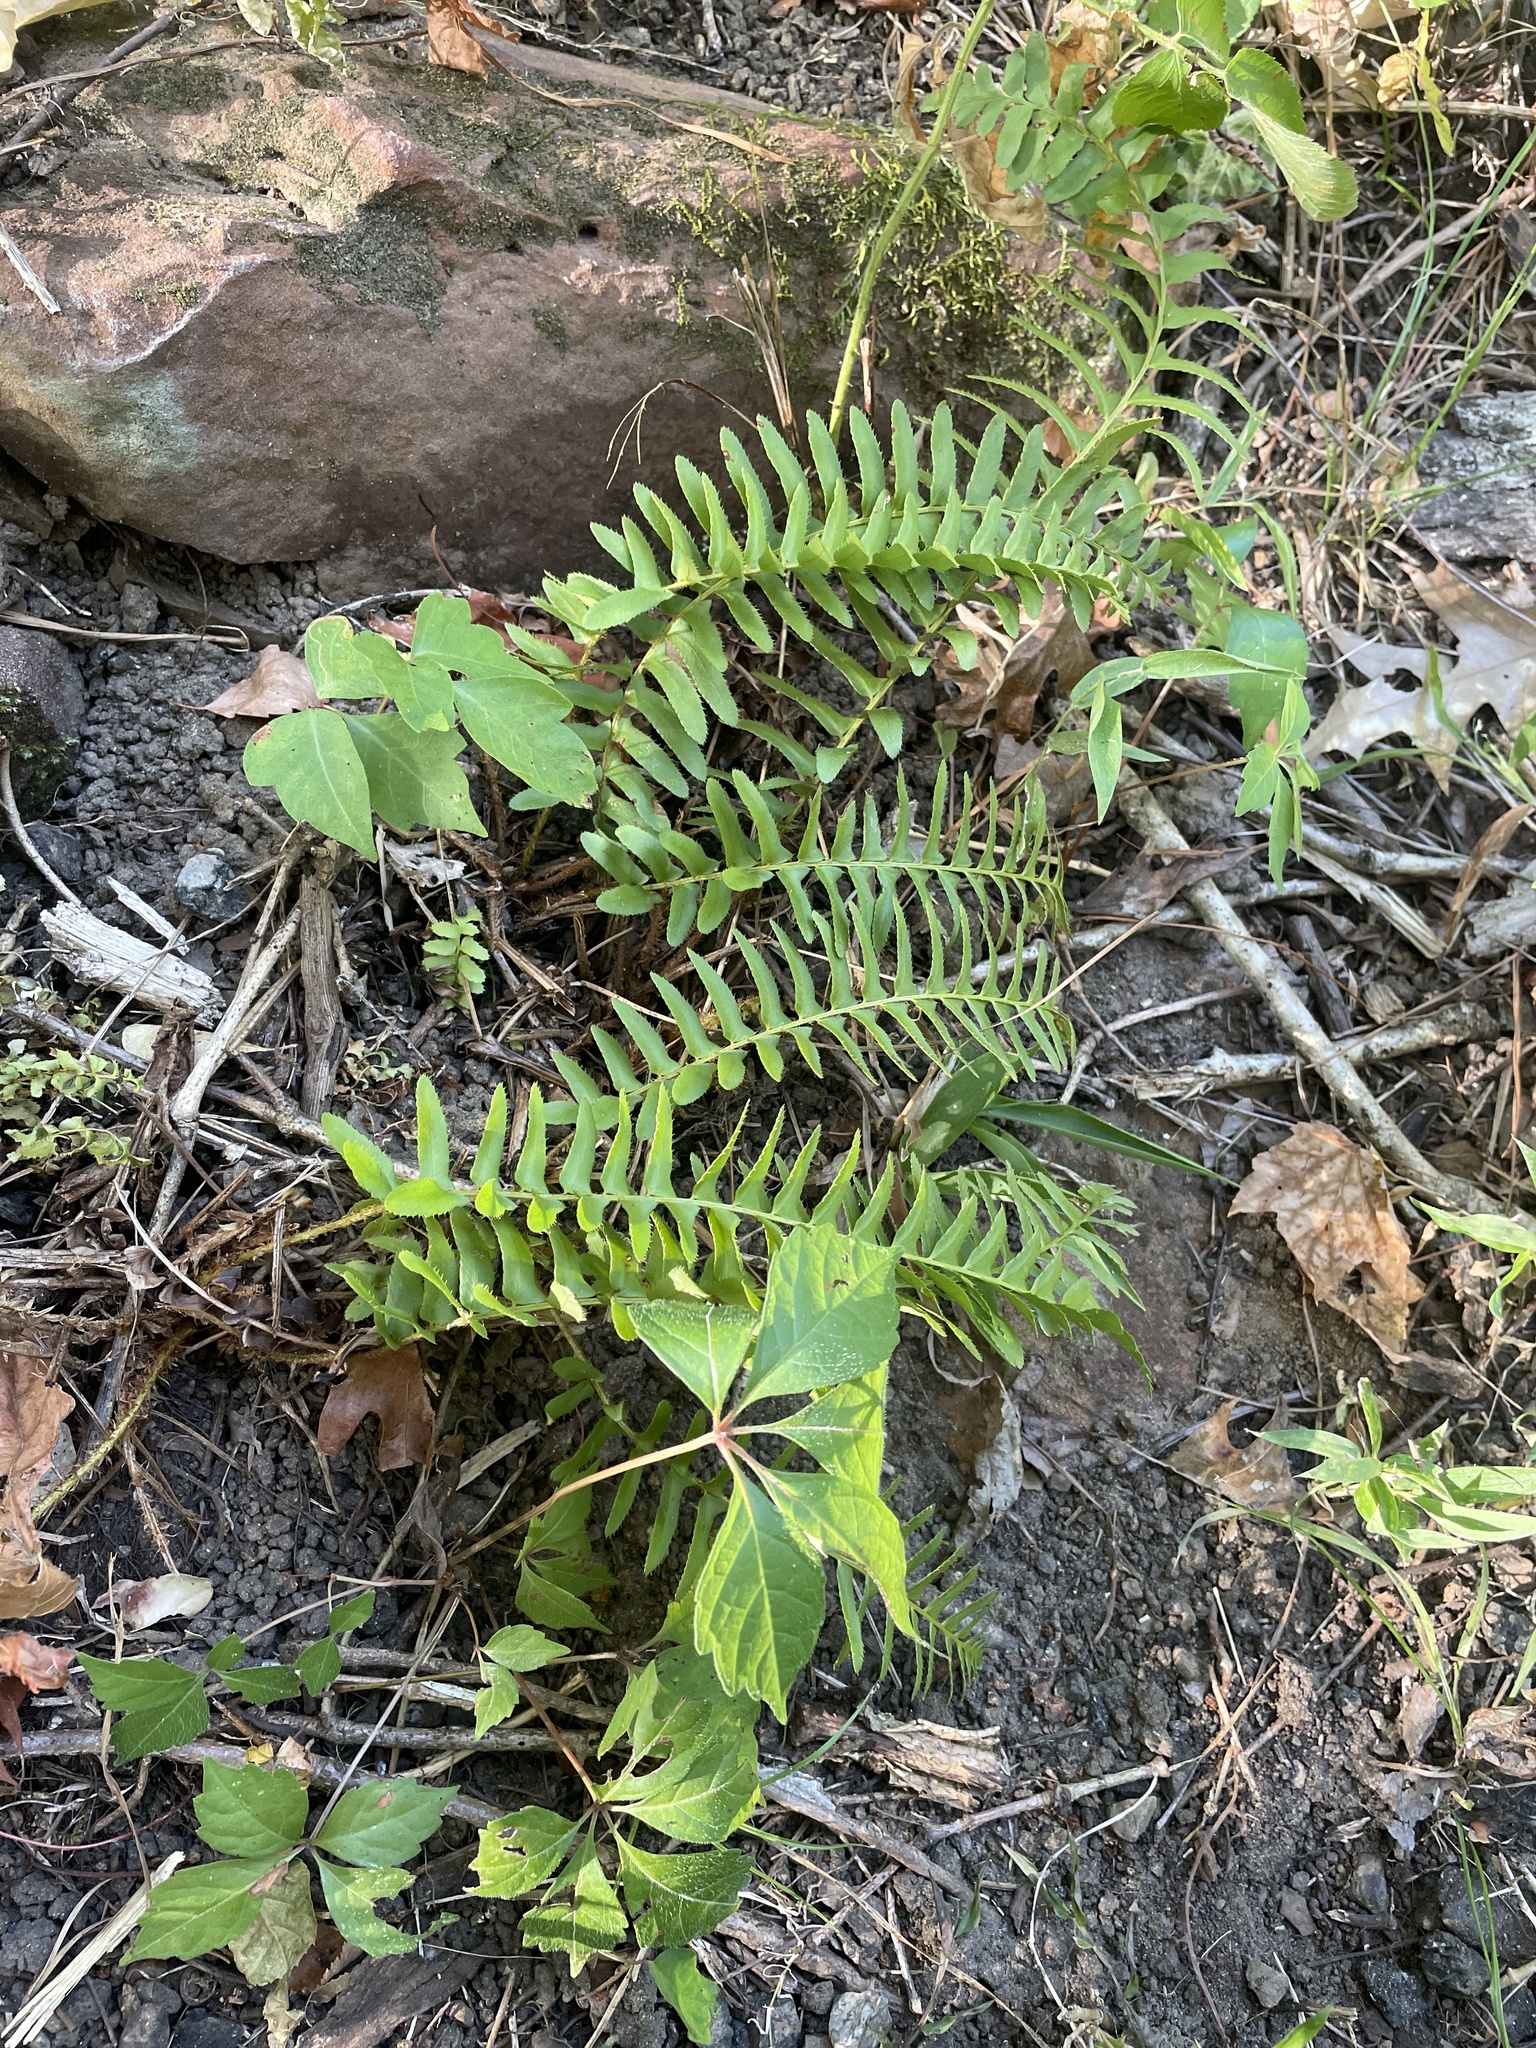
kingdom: Plantae
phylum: Tracheophyta
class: Polypodiopsida
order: Polypodiales
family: Dryopteridaceae
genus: Polystichum
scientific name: Polystichum acrostichoides
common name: Christmas fern
